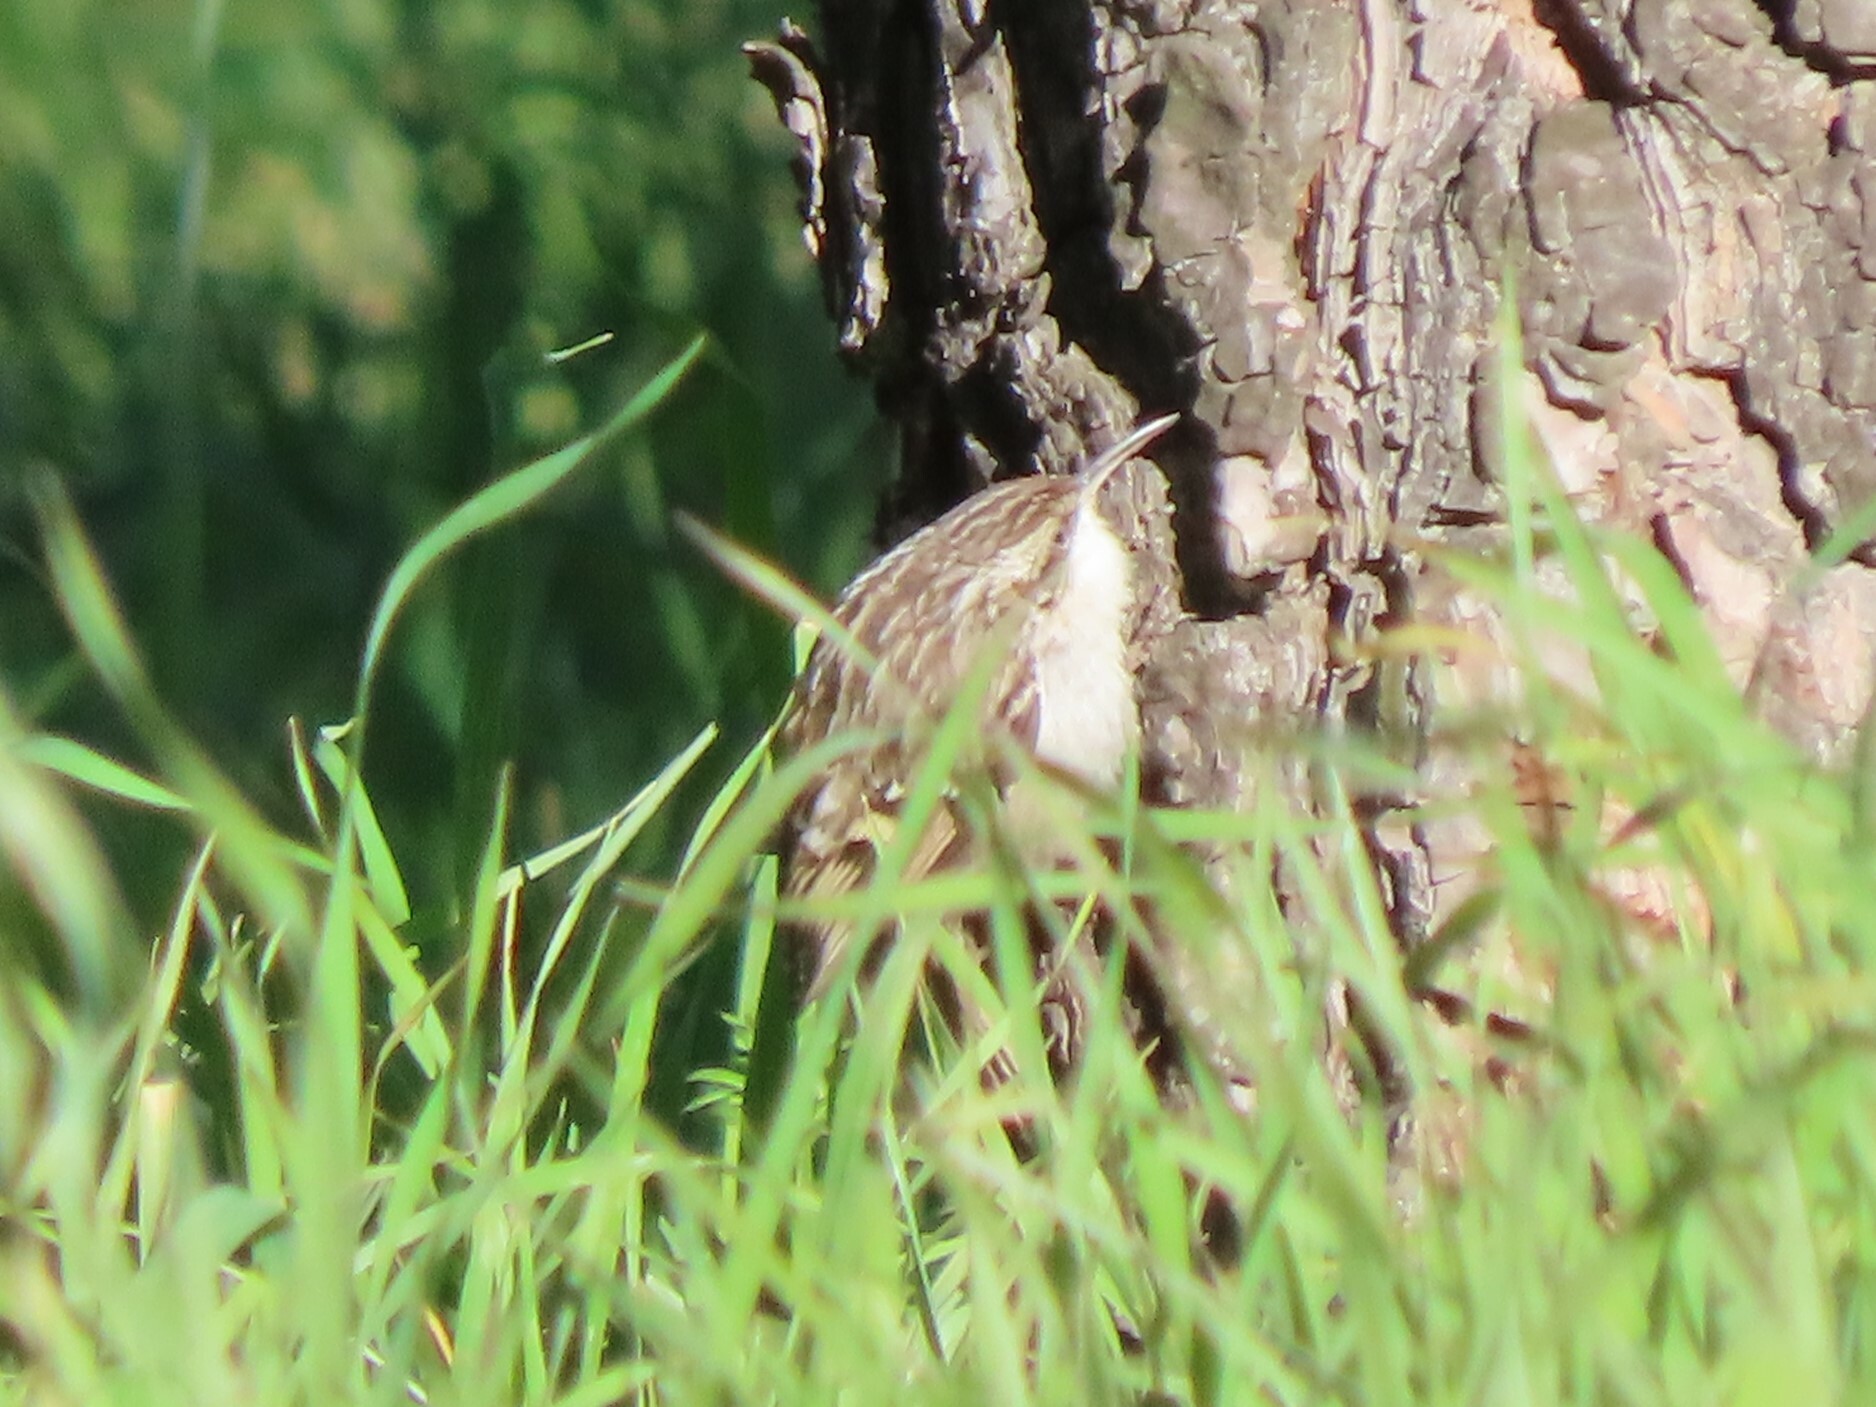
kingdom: Animalia
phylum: Chordata
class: Aves
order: Passeriformes
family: Certhiidae
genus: Certhia
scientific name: Certhia brachydactyla
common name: Short-toed treecreeper
